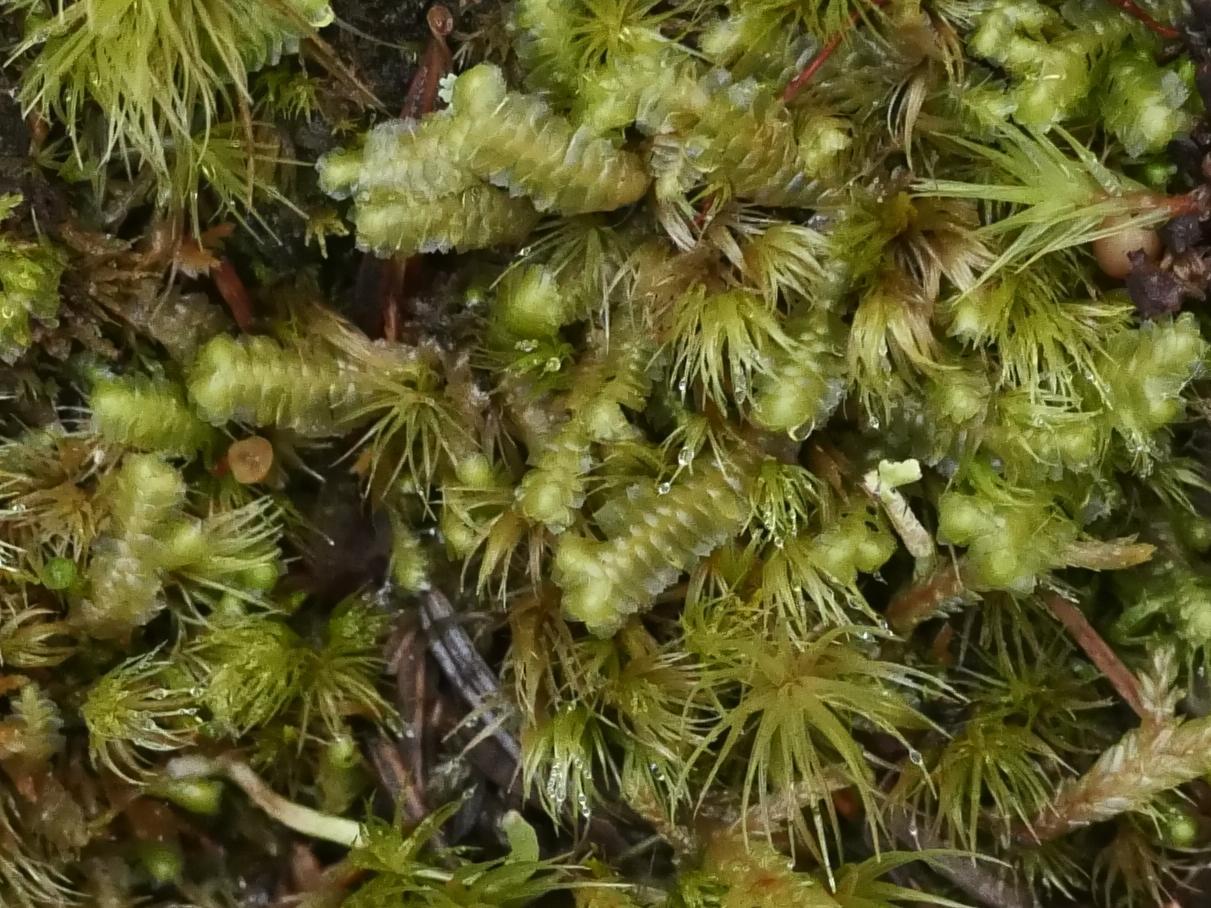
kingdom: Plantae
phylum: Marchantiophyta
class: Jungermanniopsida
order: Jungermanniales
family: Lepidoziaceae
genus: Bazzania
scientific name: Bazzania trilobata
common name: Three-lobed whipwort
